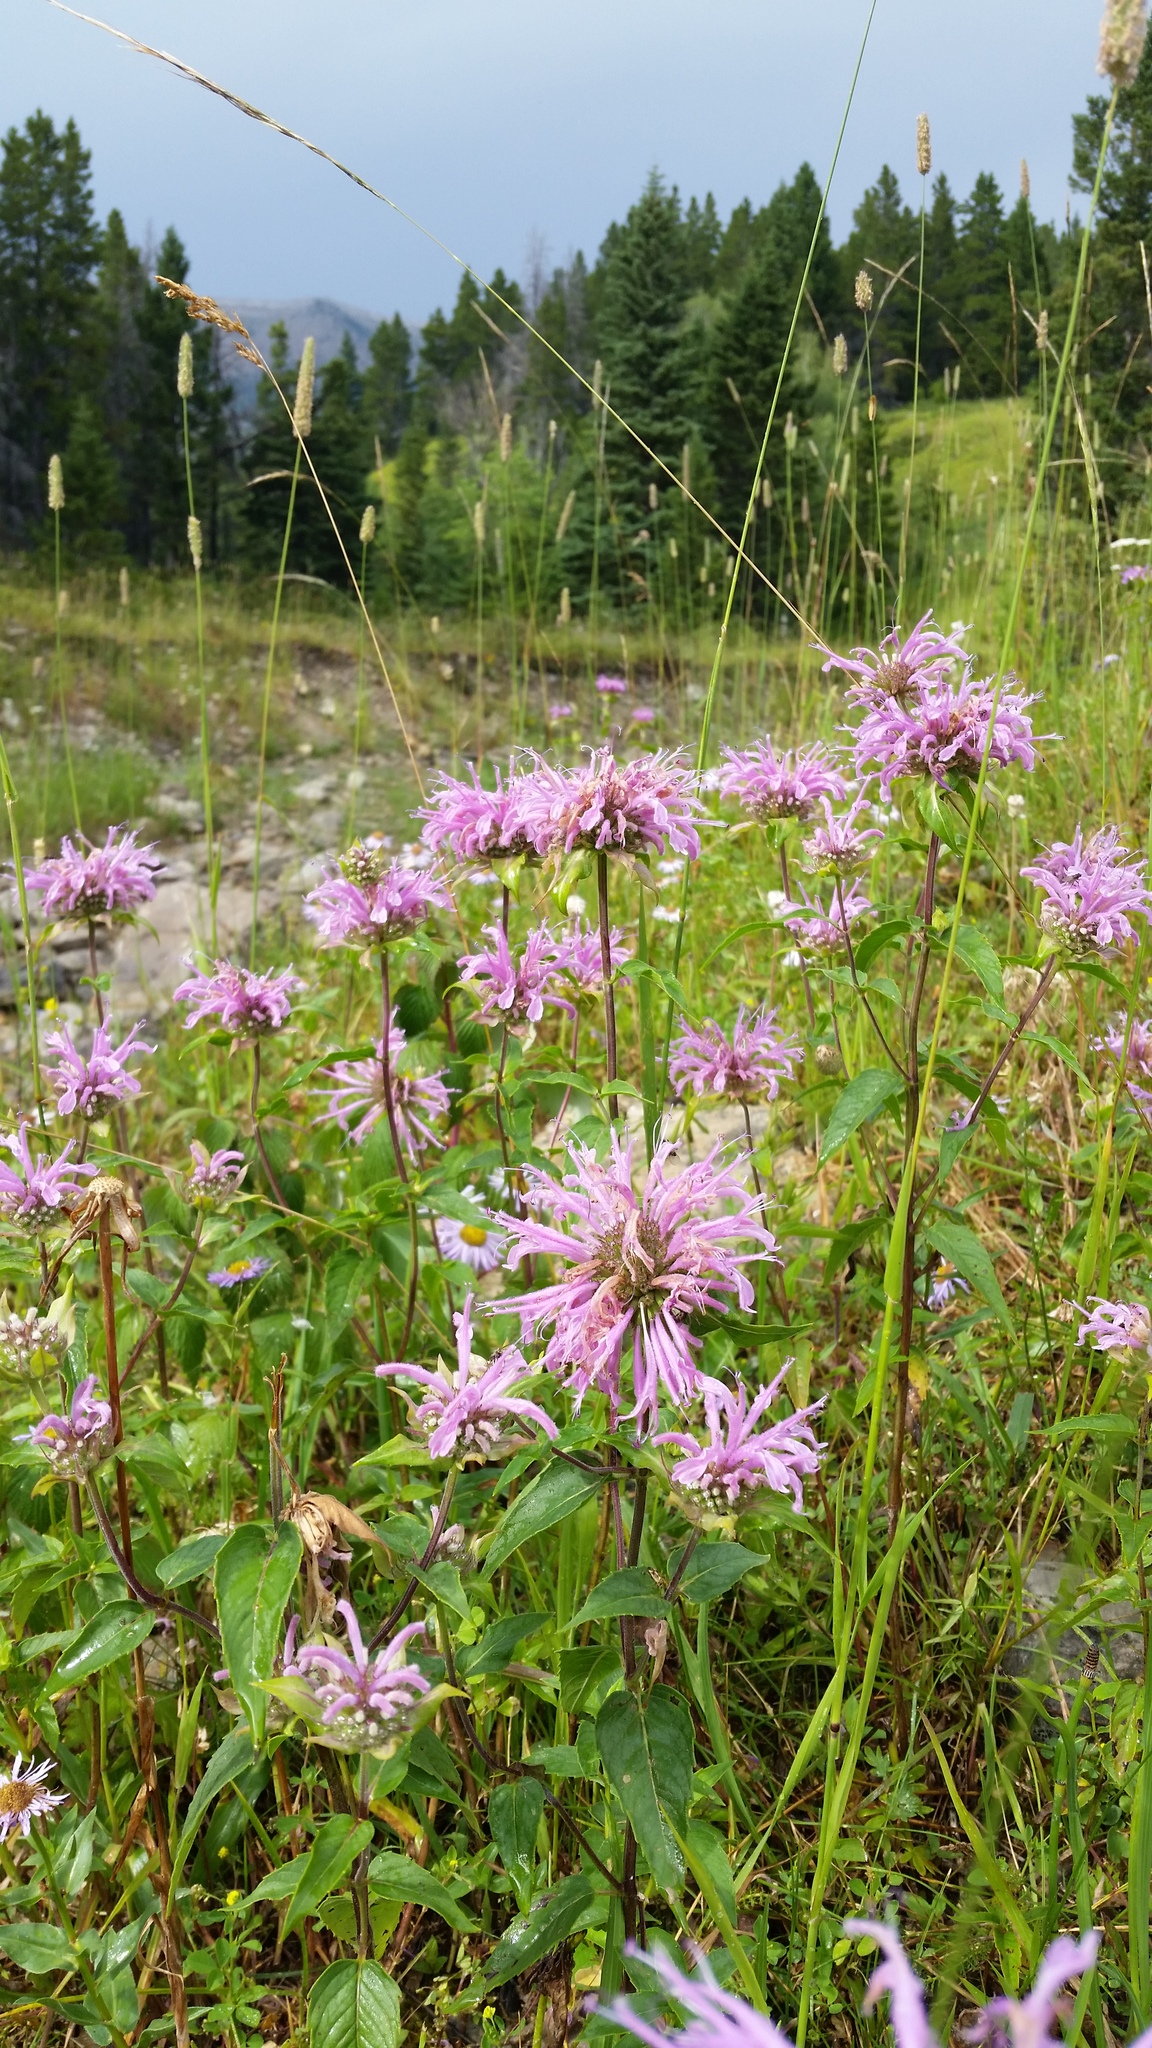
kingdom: Plantae
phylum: Tracheophyta
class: Magnoliopsida
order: Lamiales
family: Lamiaceae
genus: Monarda
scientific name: Monarda fistulosa
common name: Purple beebalm
